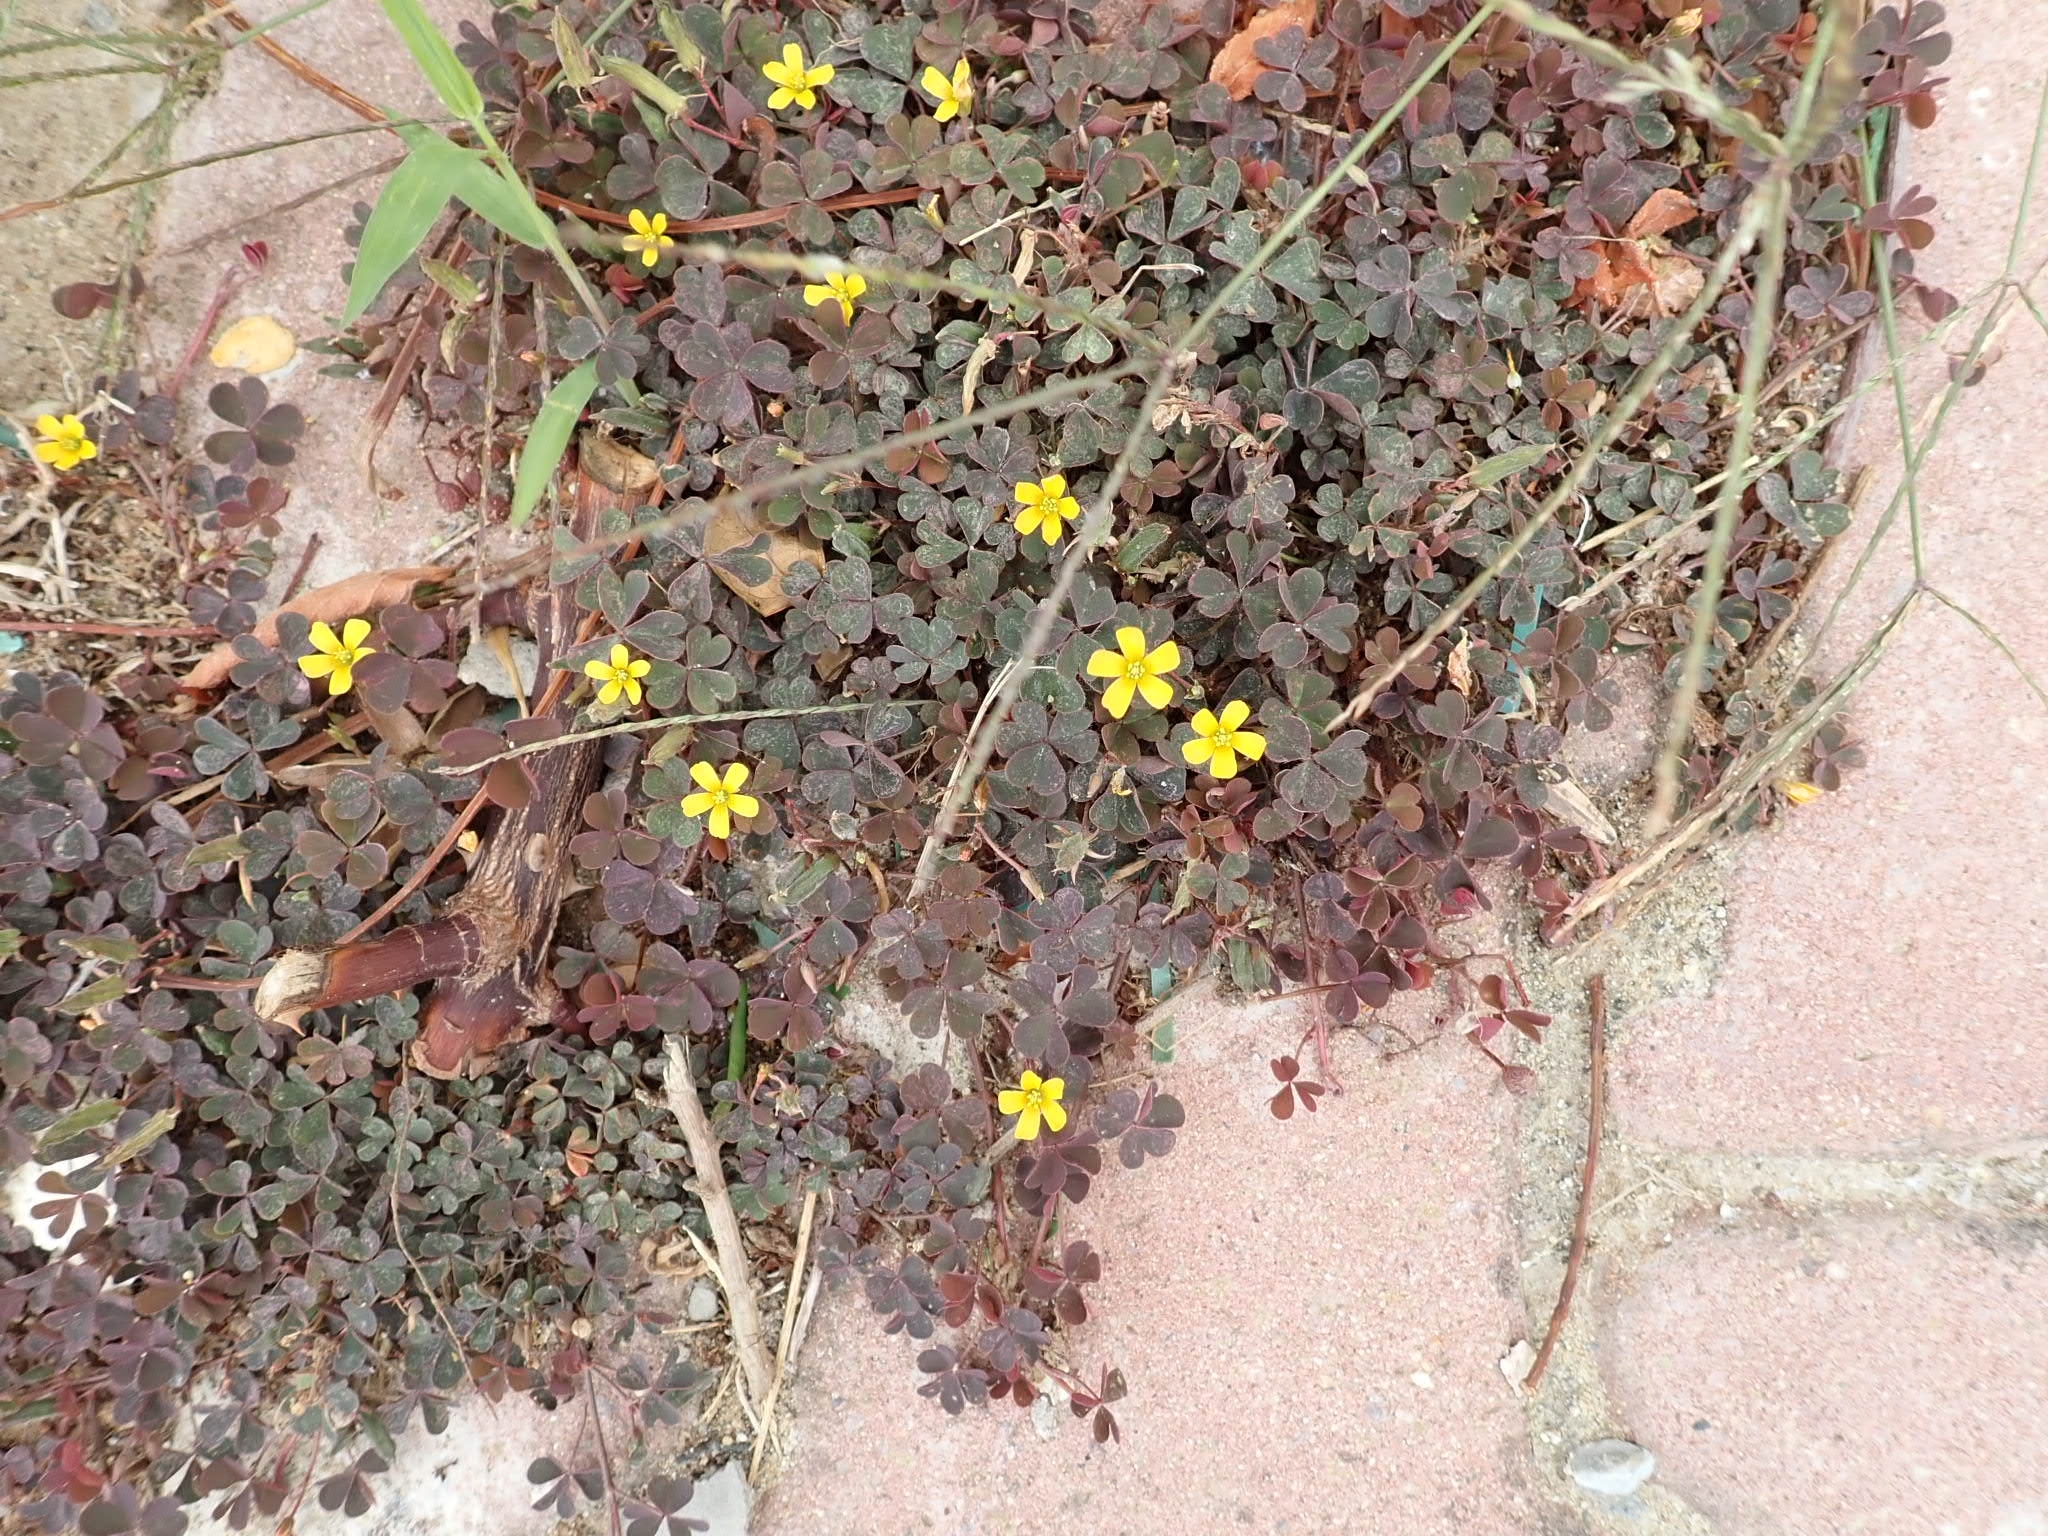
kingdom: Plantae
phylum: Tracheophyta
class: Magnoliopsida
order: Oxalidales
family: Oxalidaceae
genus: Oxalis
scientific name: Oxalis corniculata
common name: Procumbent yellow-sorrel
